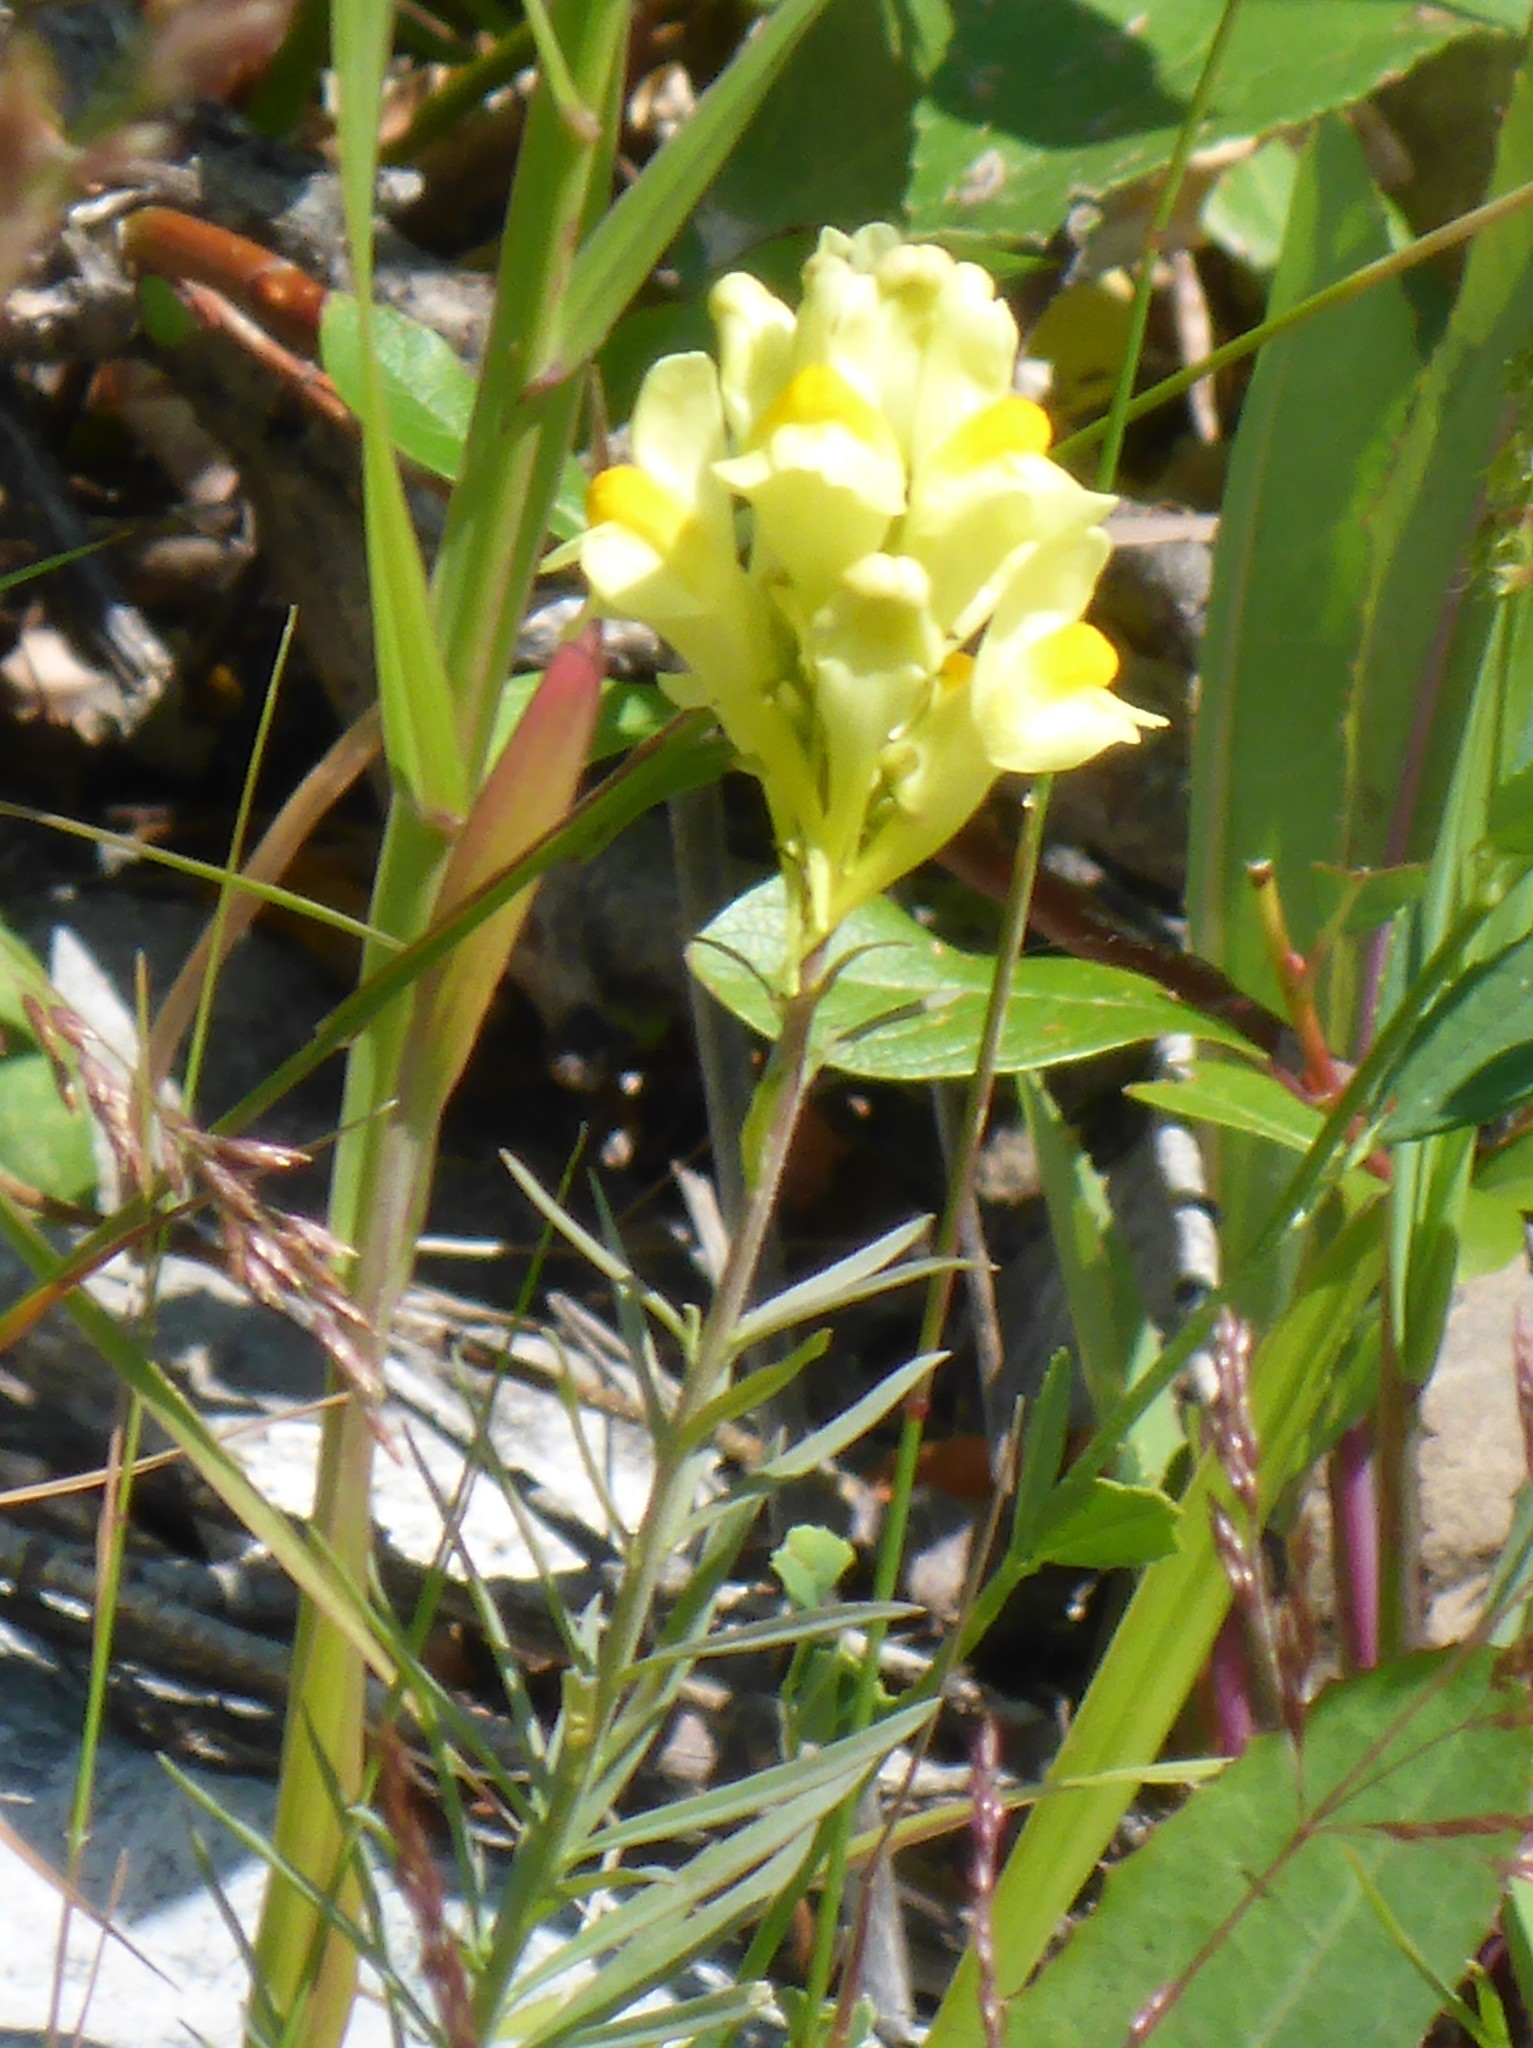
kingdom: Plantae
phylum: Tracheophyta
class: Magnoliopsida
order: Lamiales
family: Plantaginaceae
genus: Linaria
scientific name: Linaria vulgaris
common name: Butter and eggs
